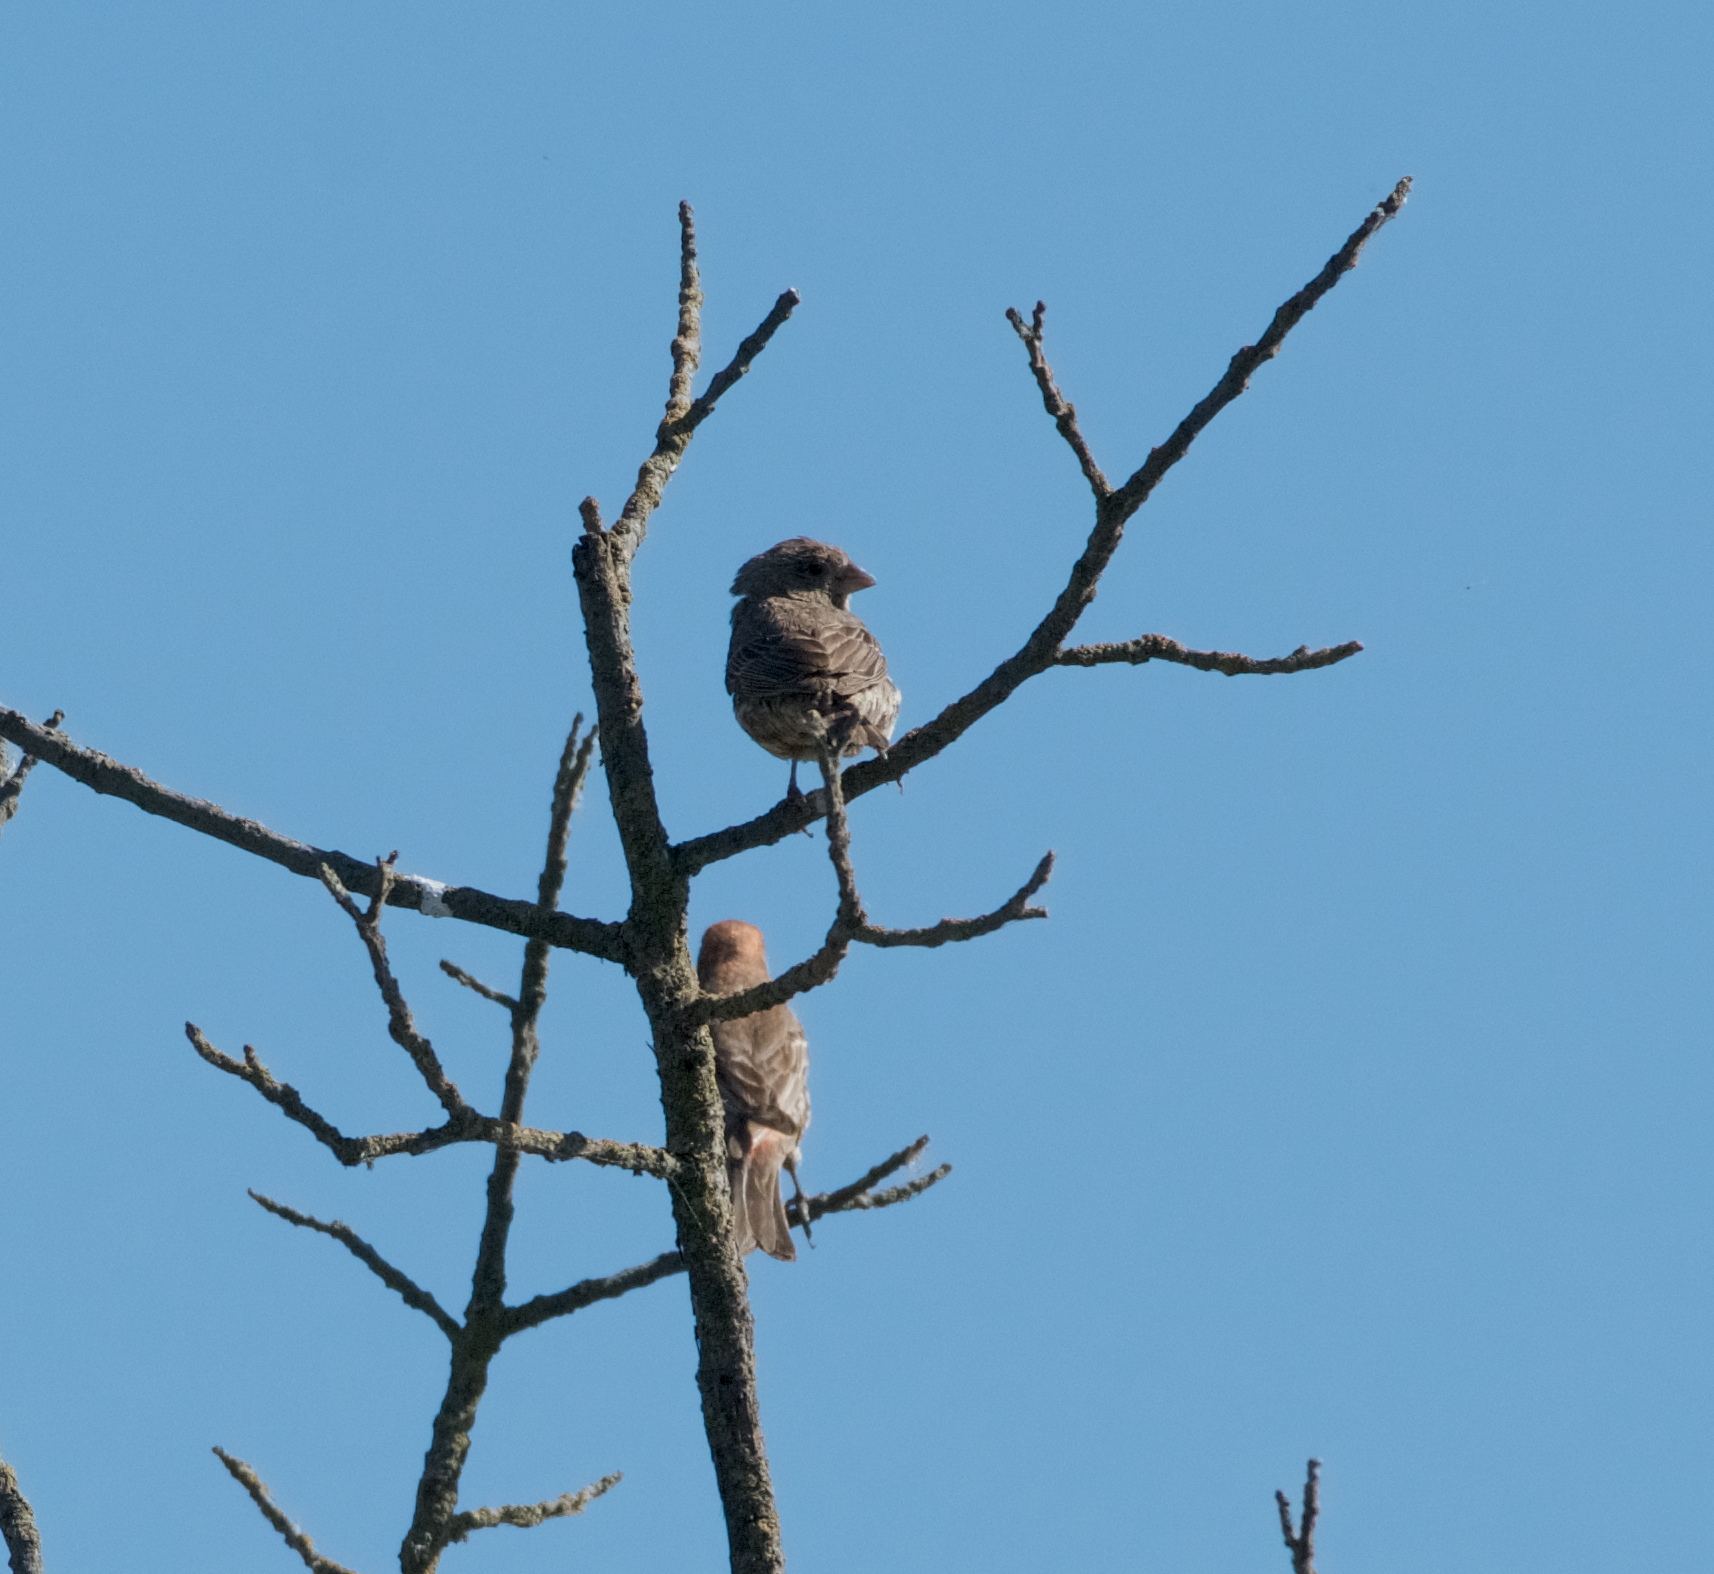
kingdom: Animalia
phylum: Chordata
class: Aves
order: Passeriformes
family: Fringillidae
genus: Haemorhous
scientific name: Haemorhous mexicanus
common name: House finch
